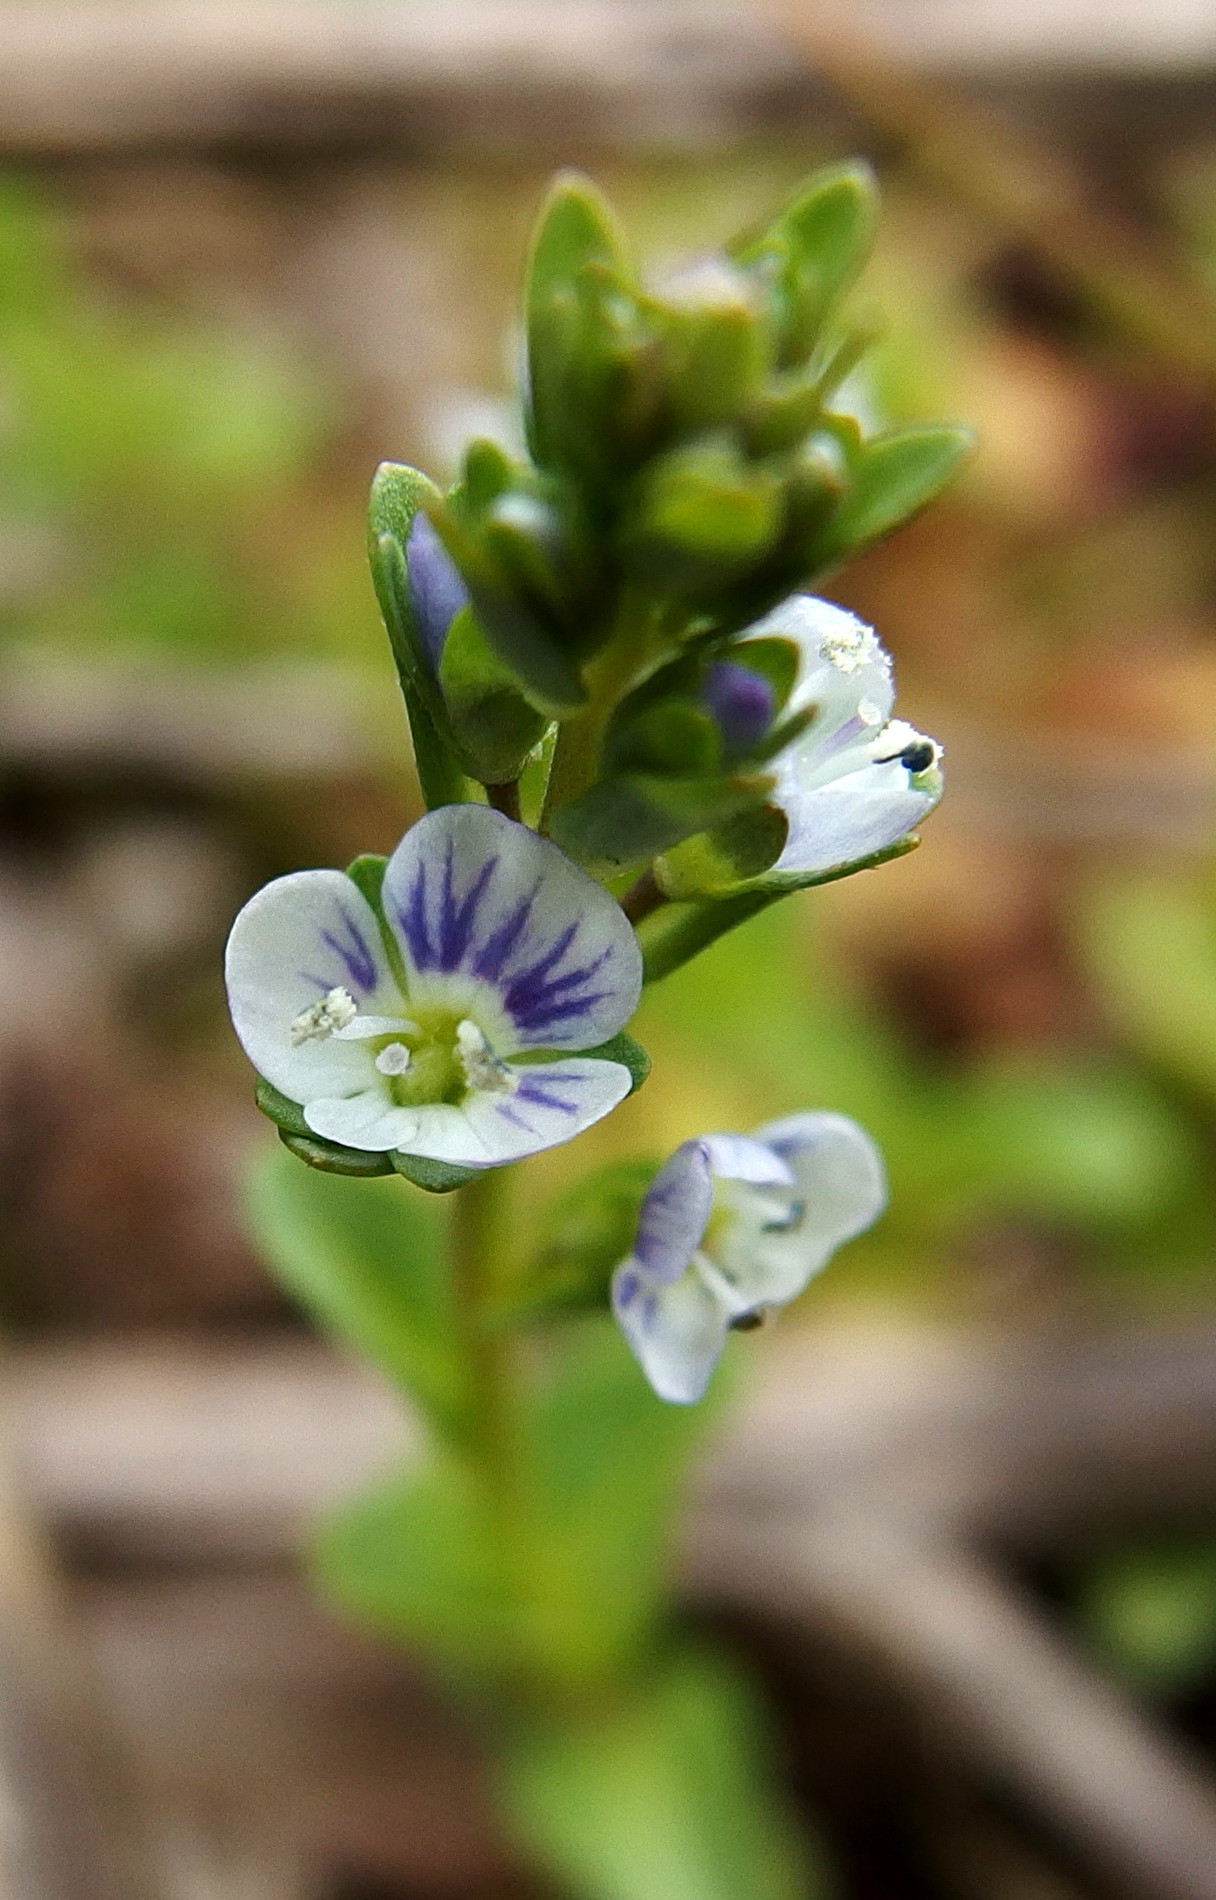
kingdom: Plantae
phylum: Tracheophyta
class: Magnoliopsida
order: Lamiales
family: Plantaginaceae
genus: Veronica
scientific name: Veronica serpyllifolia
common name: Thyme-leaved speedwell
